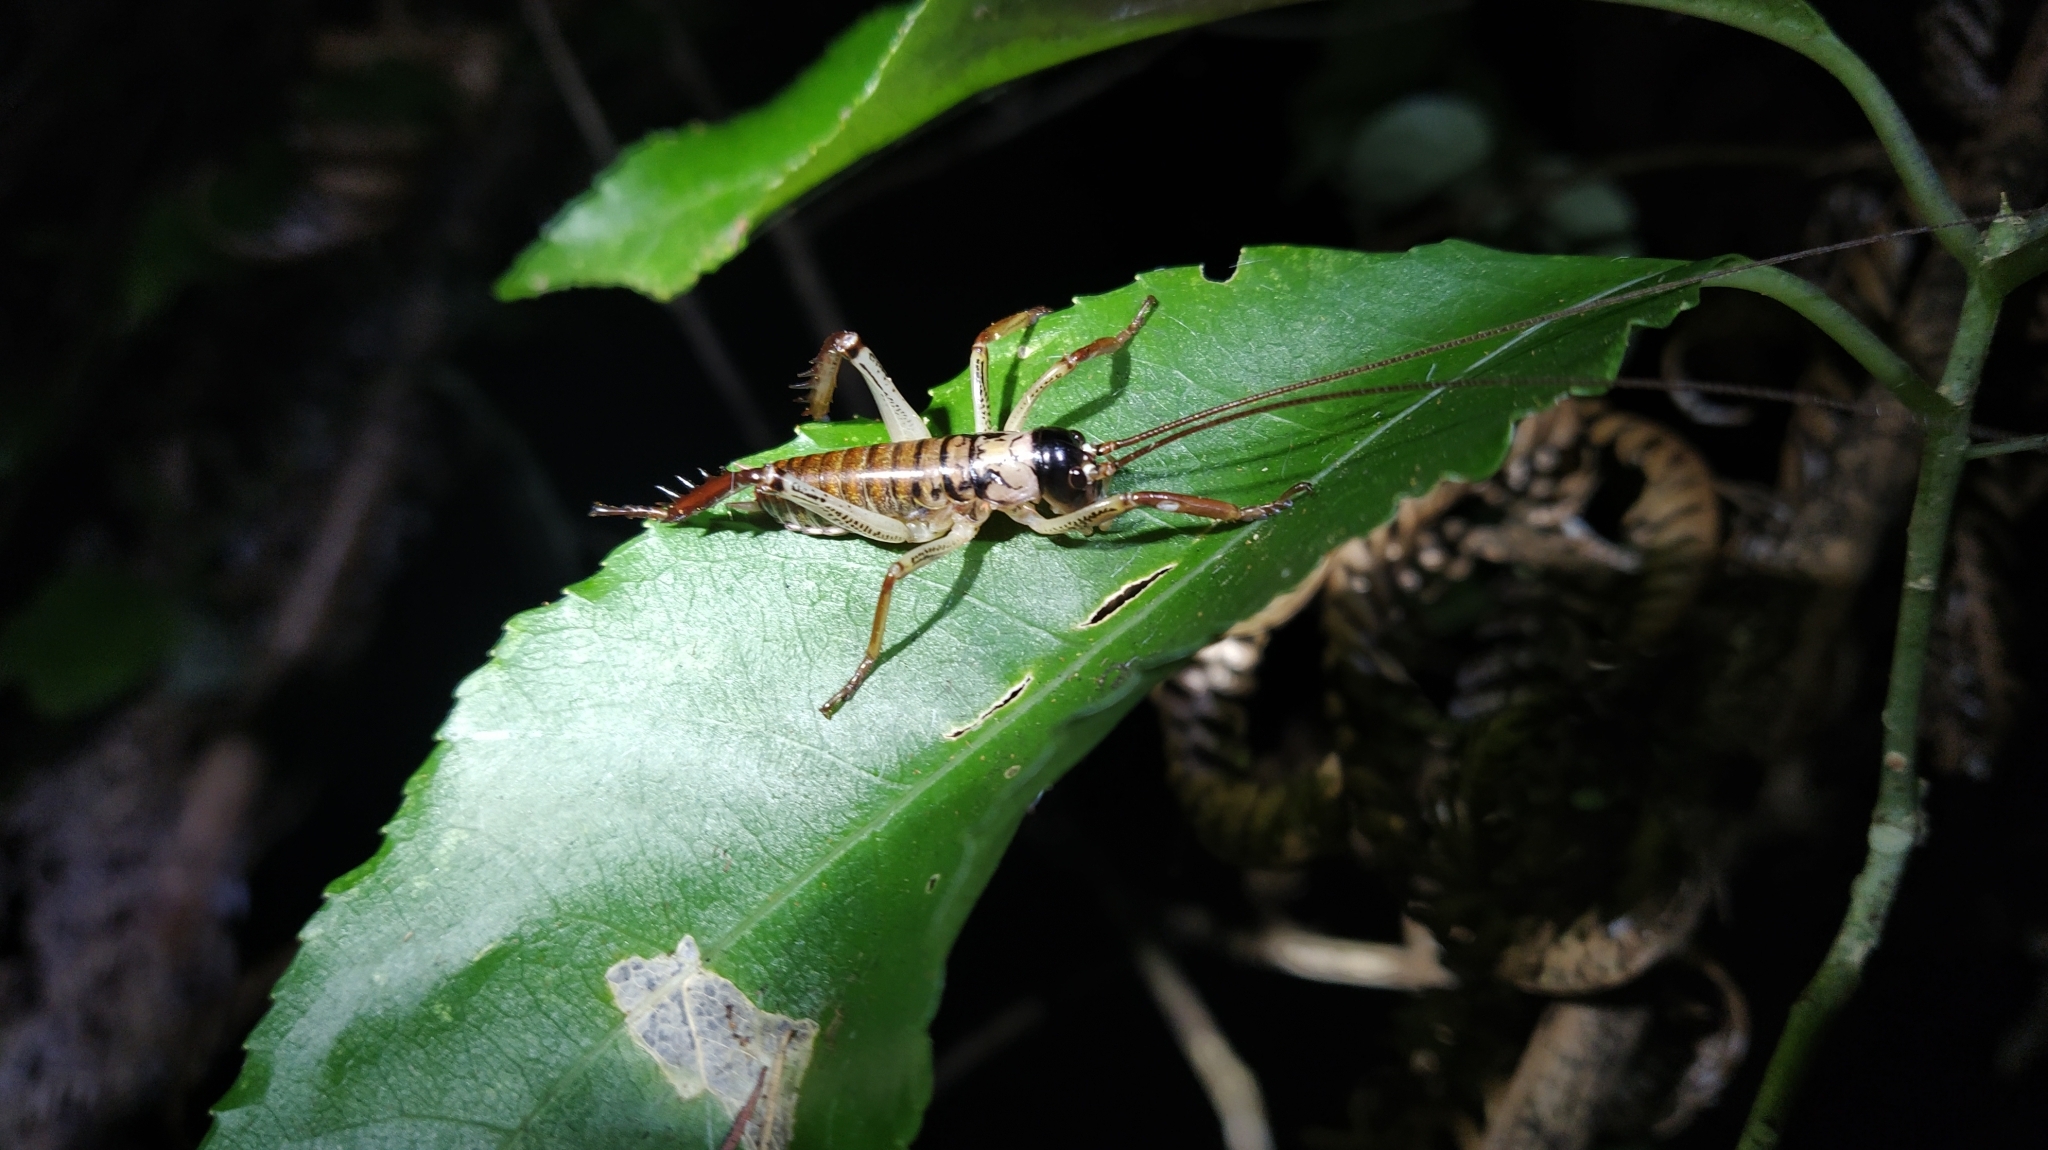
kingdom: Animalia
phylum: Arthropoda
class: Insecta
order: Orthoptera
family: Anostostomatidae
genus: Hemideina
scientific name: Hemideina thoracica
